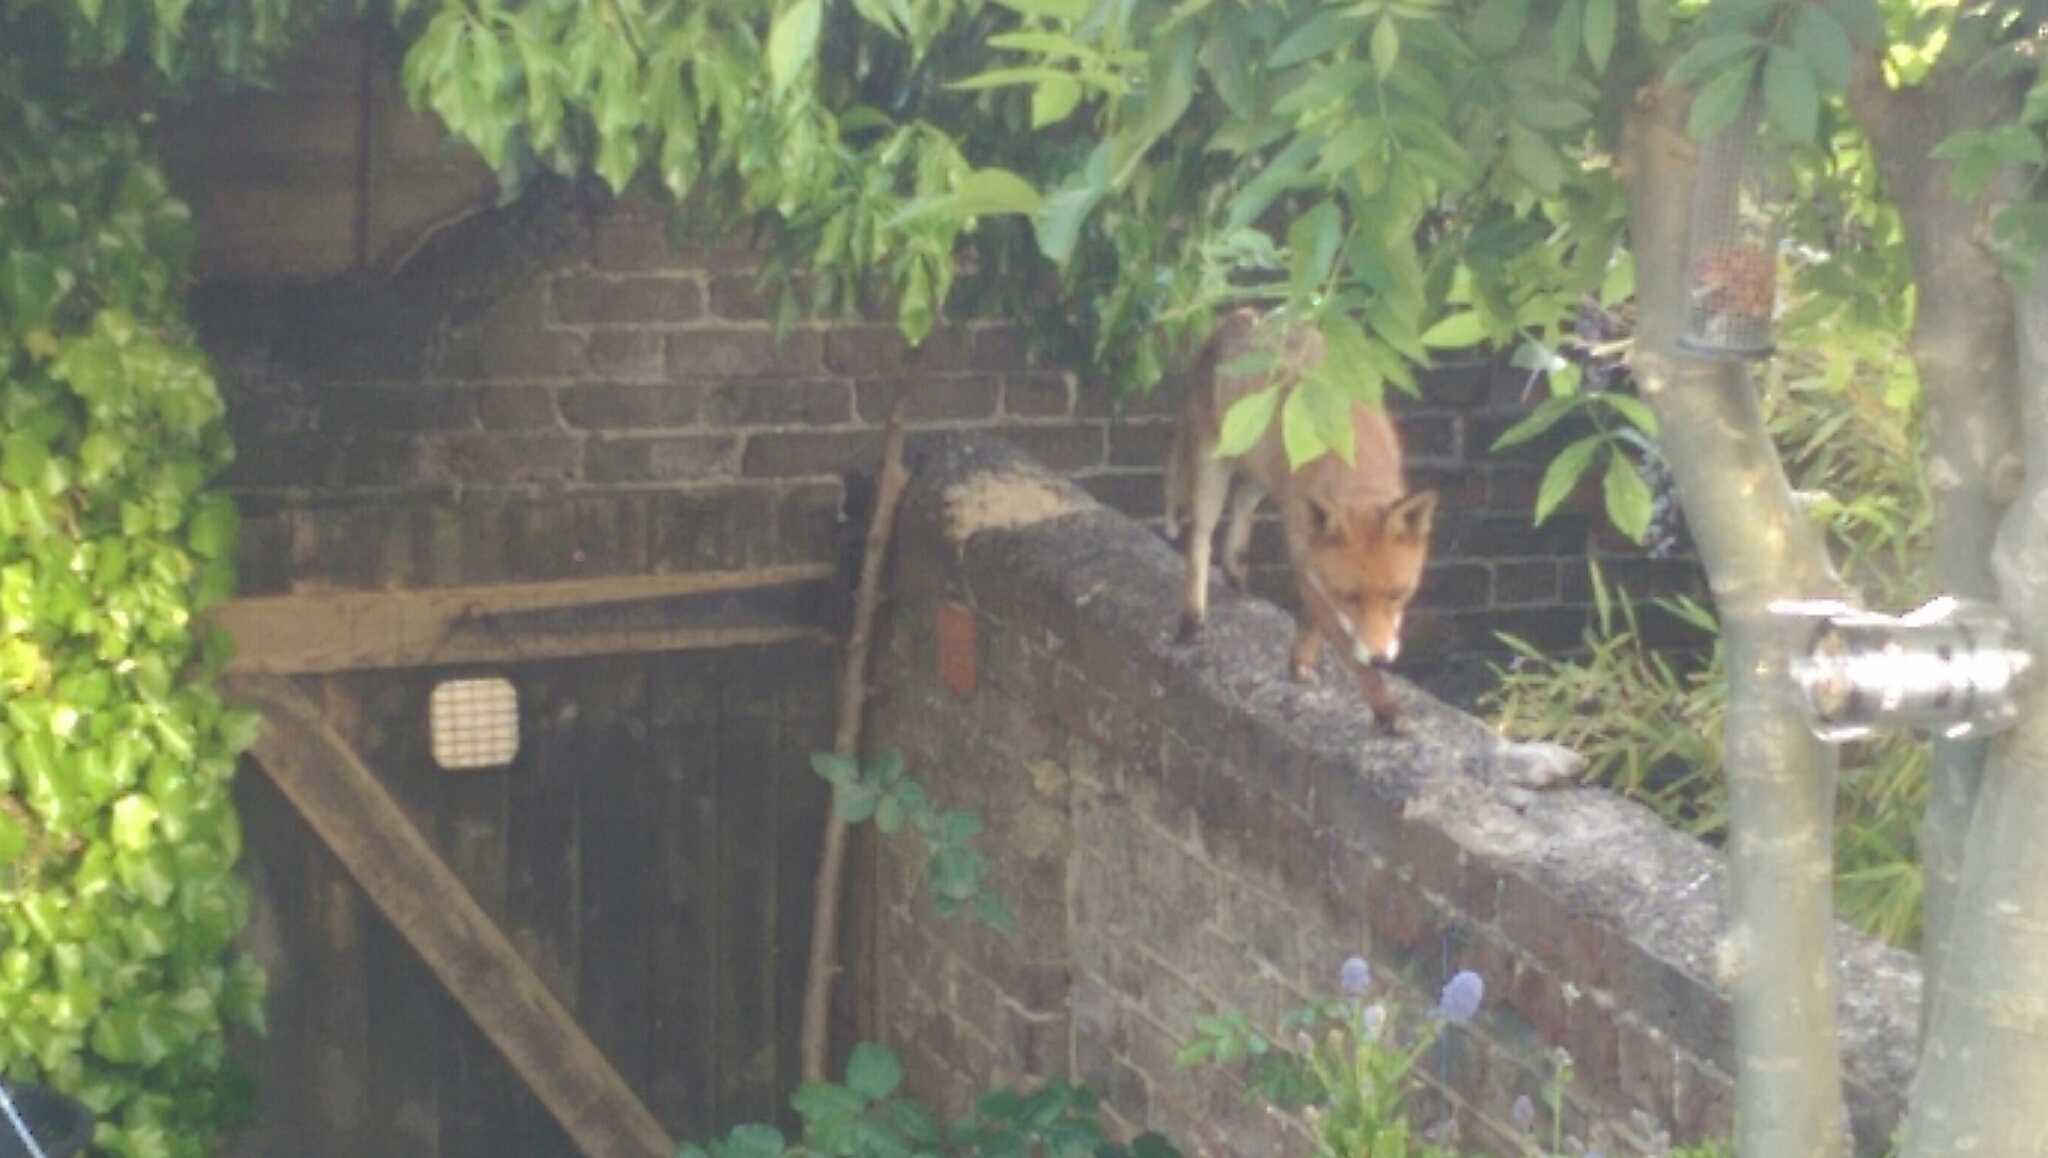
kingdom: Animalia
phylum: Chordata
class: Mammalia
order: Carnivora
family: Canidae
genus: Vulpes
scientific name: Vulpes vulpes
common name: Red fox
